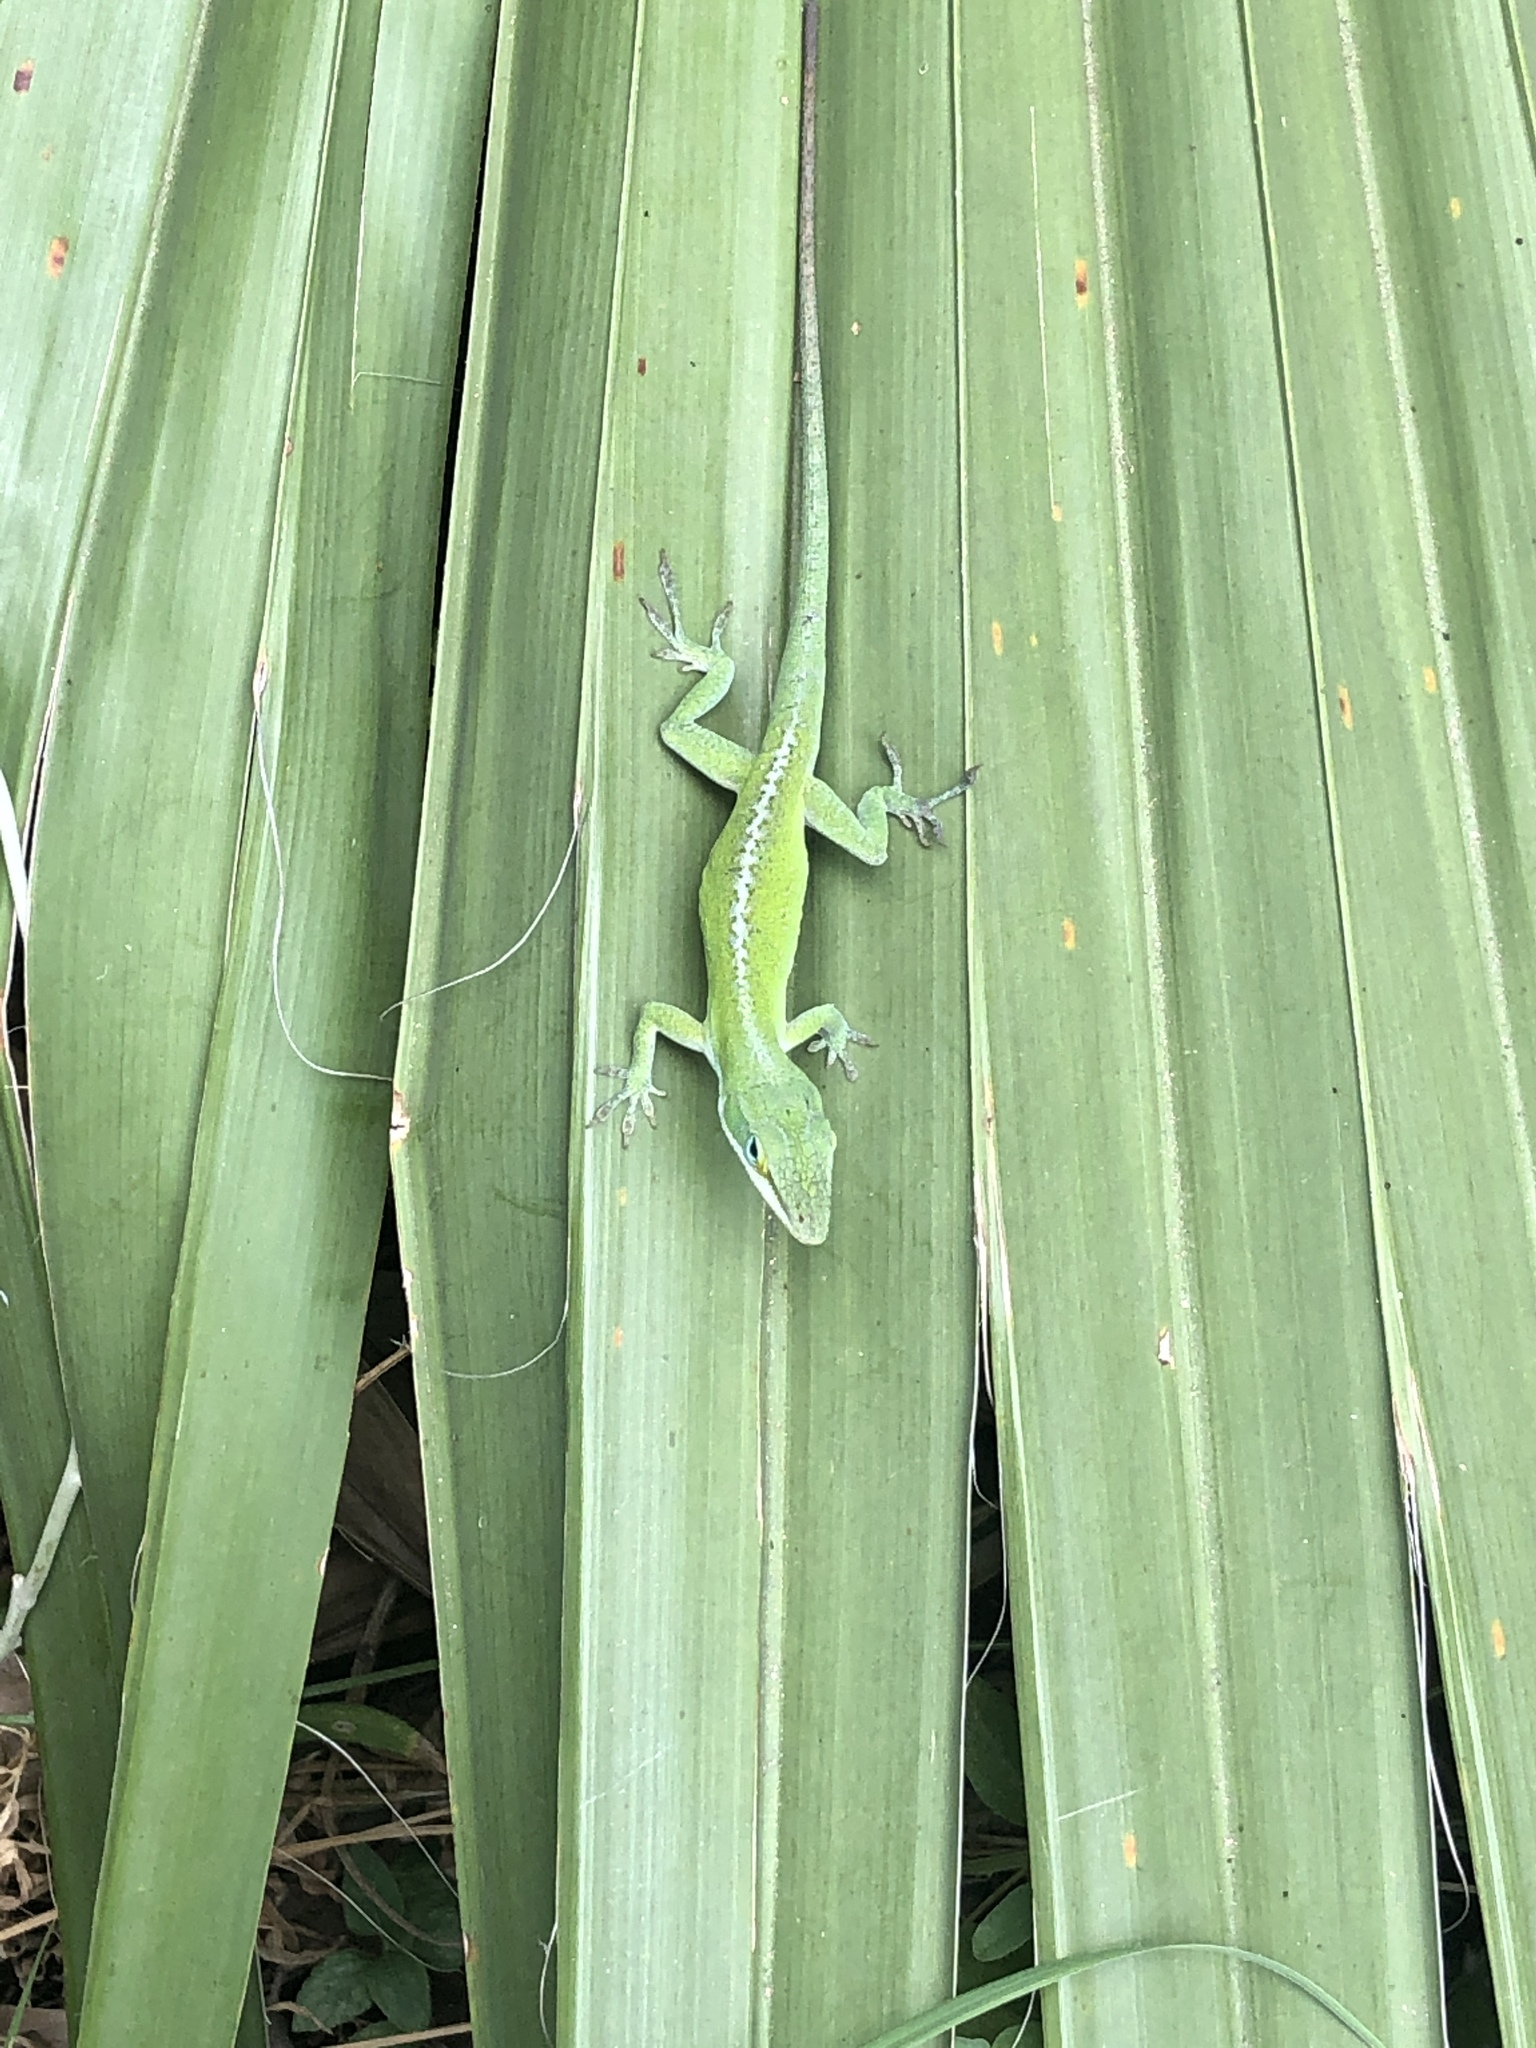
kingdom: Animalia
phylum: Chordata
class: Squamata
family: Dactyloidae
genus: Anolis
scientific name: Anolis carolinensis
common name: Green anole
